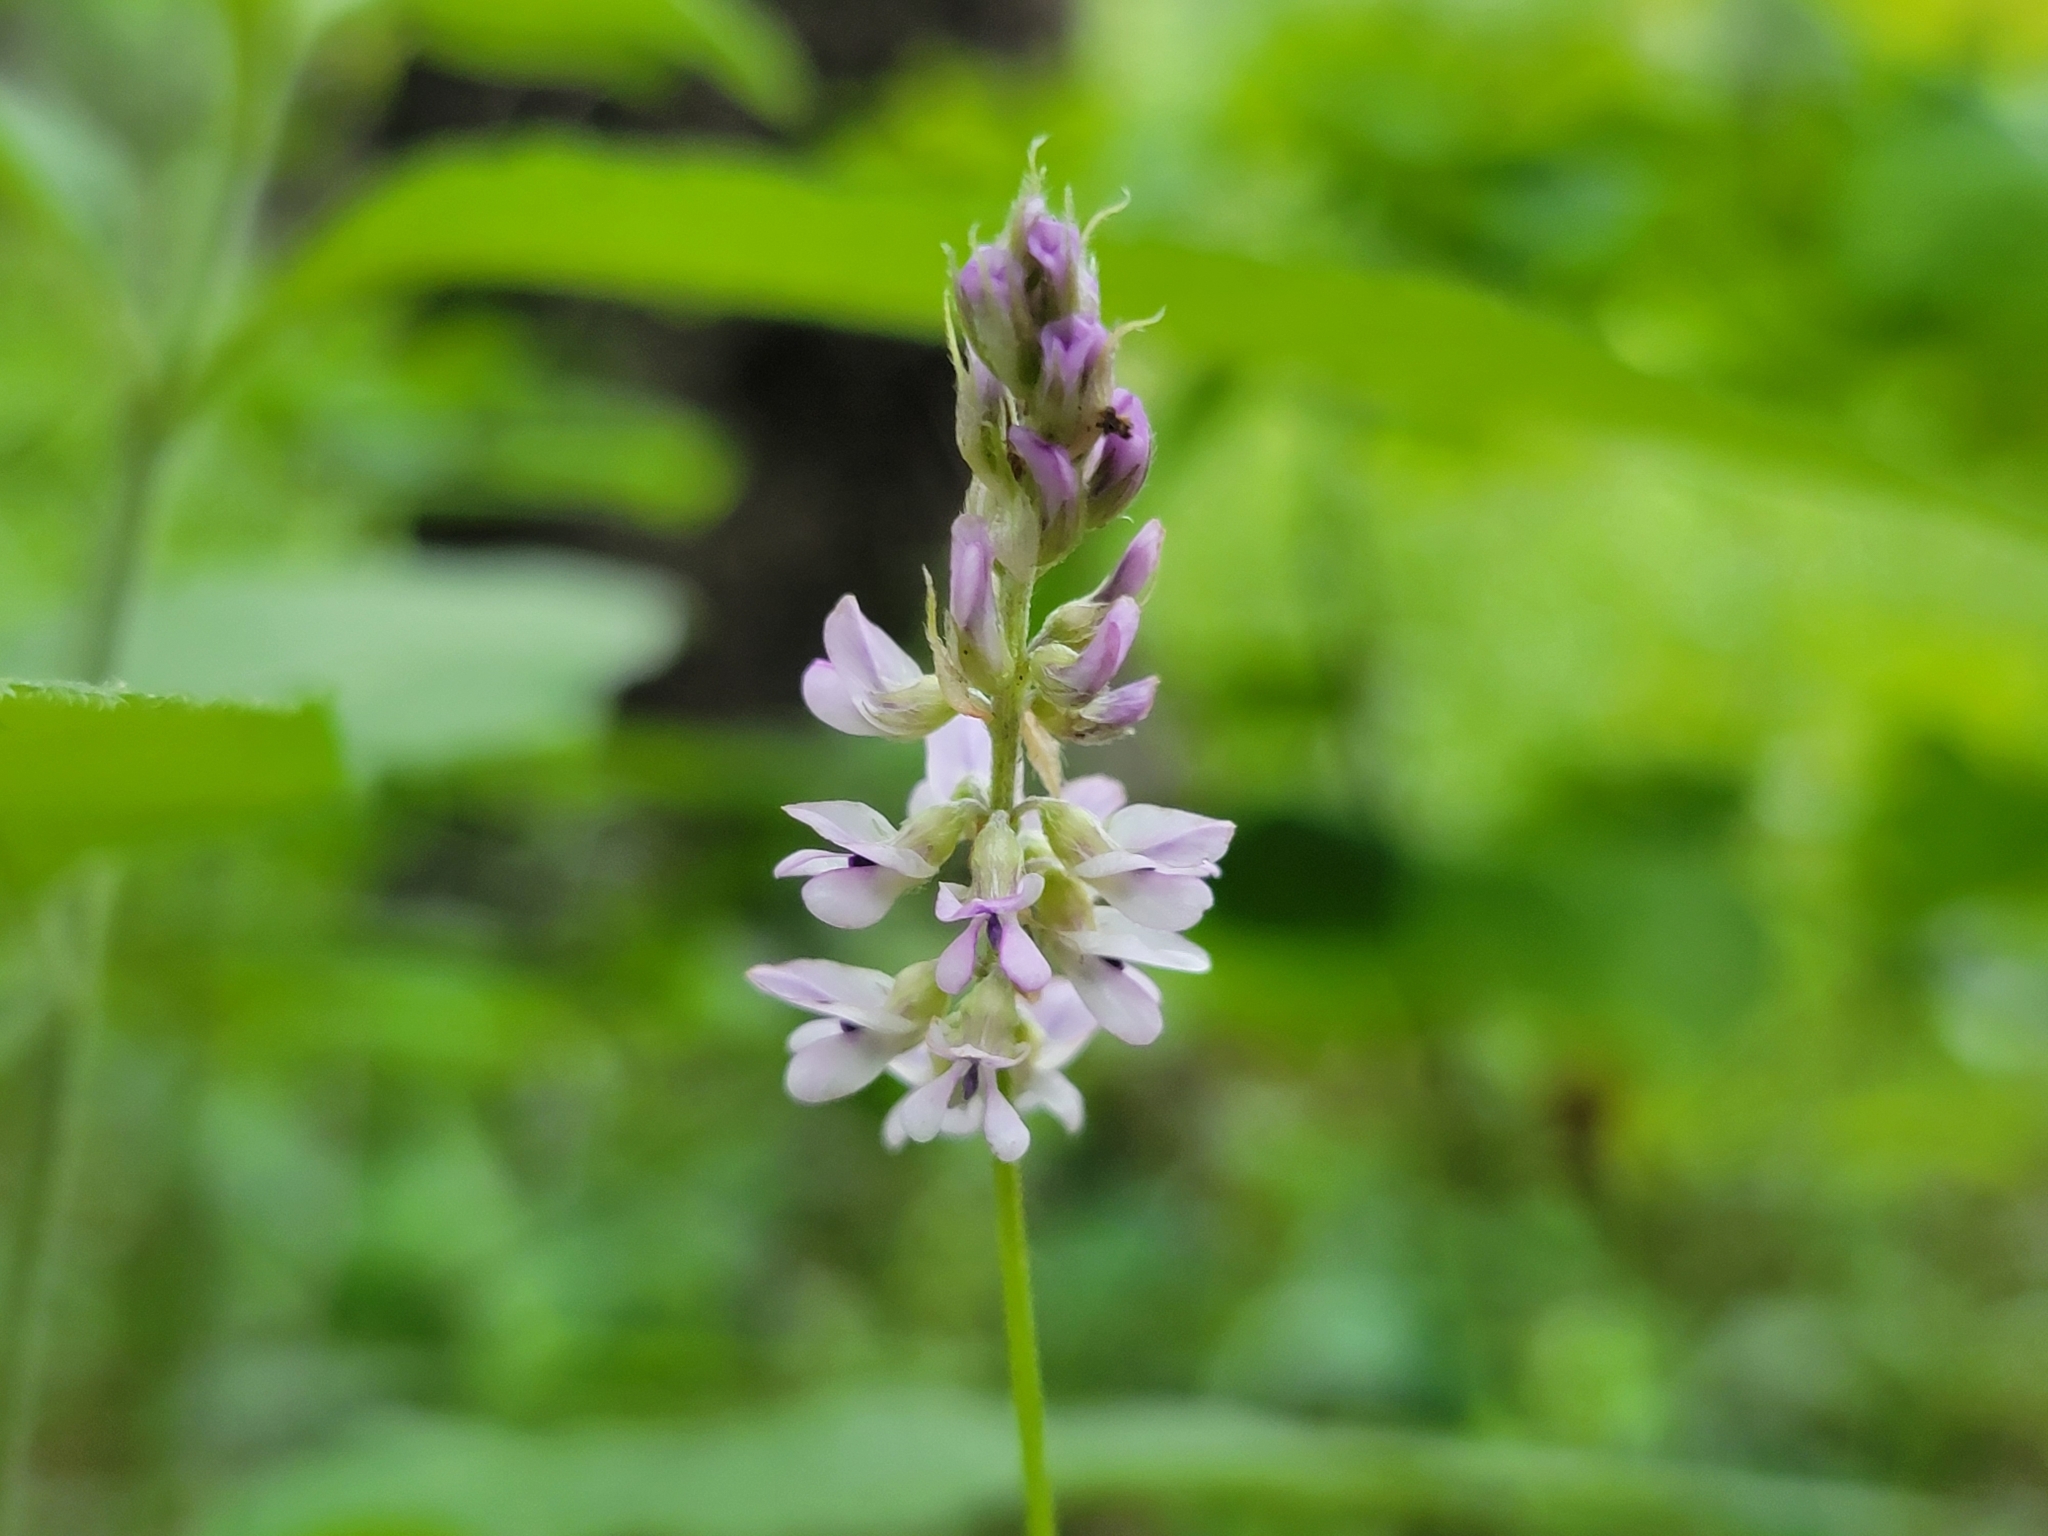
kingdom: Plantae
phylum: Tracheophyta
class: Magnoliopsida
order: Fabales
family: Fabaceae
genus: Orbexilum
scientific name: Orbexilum pedunculatum
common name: Sampson's snakeroot
